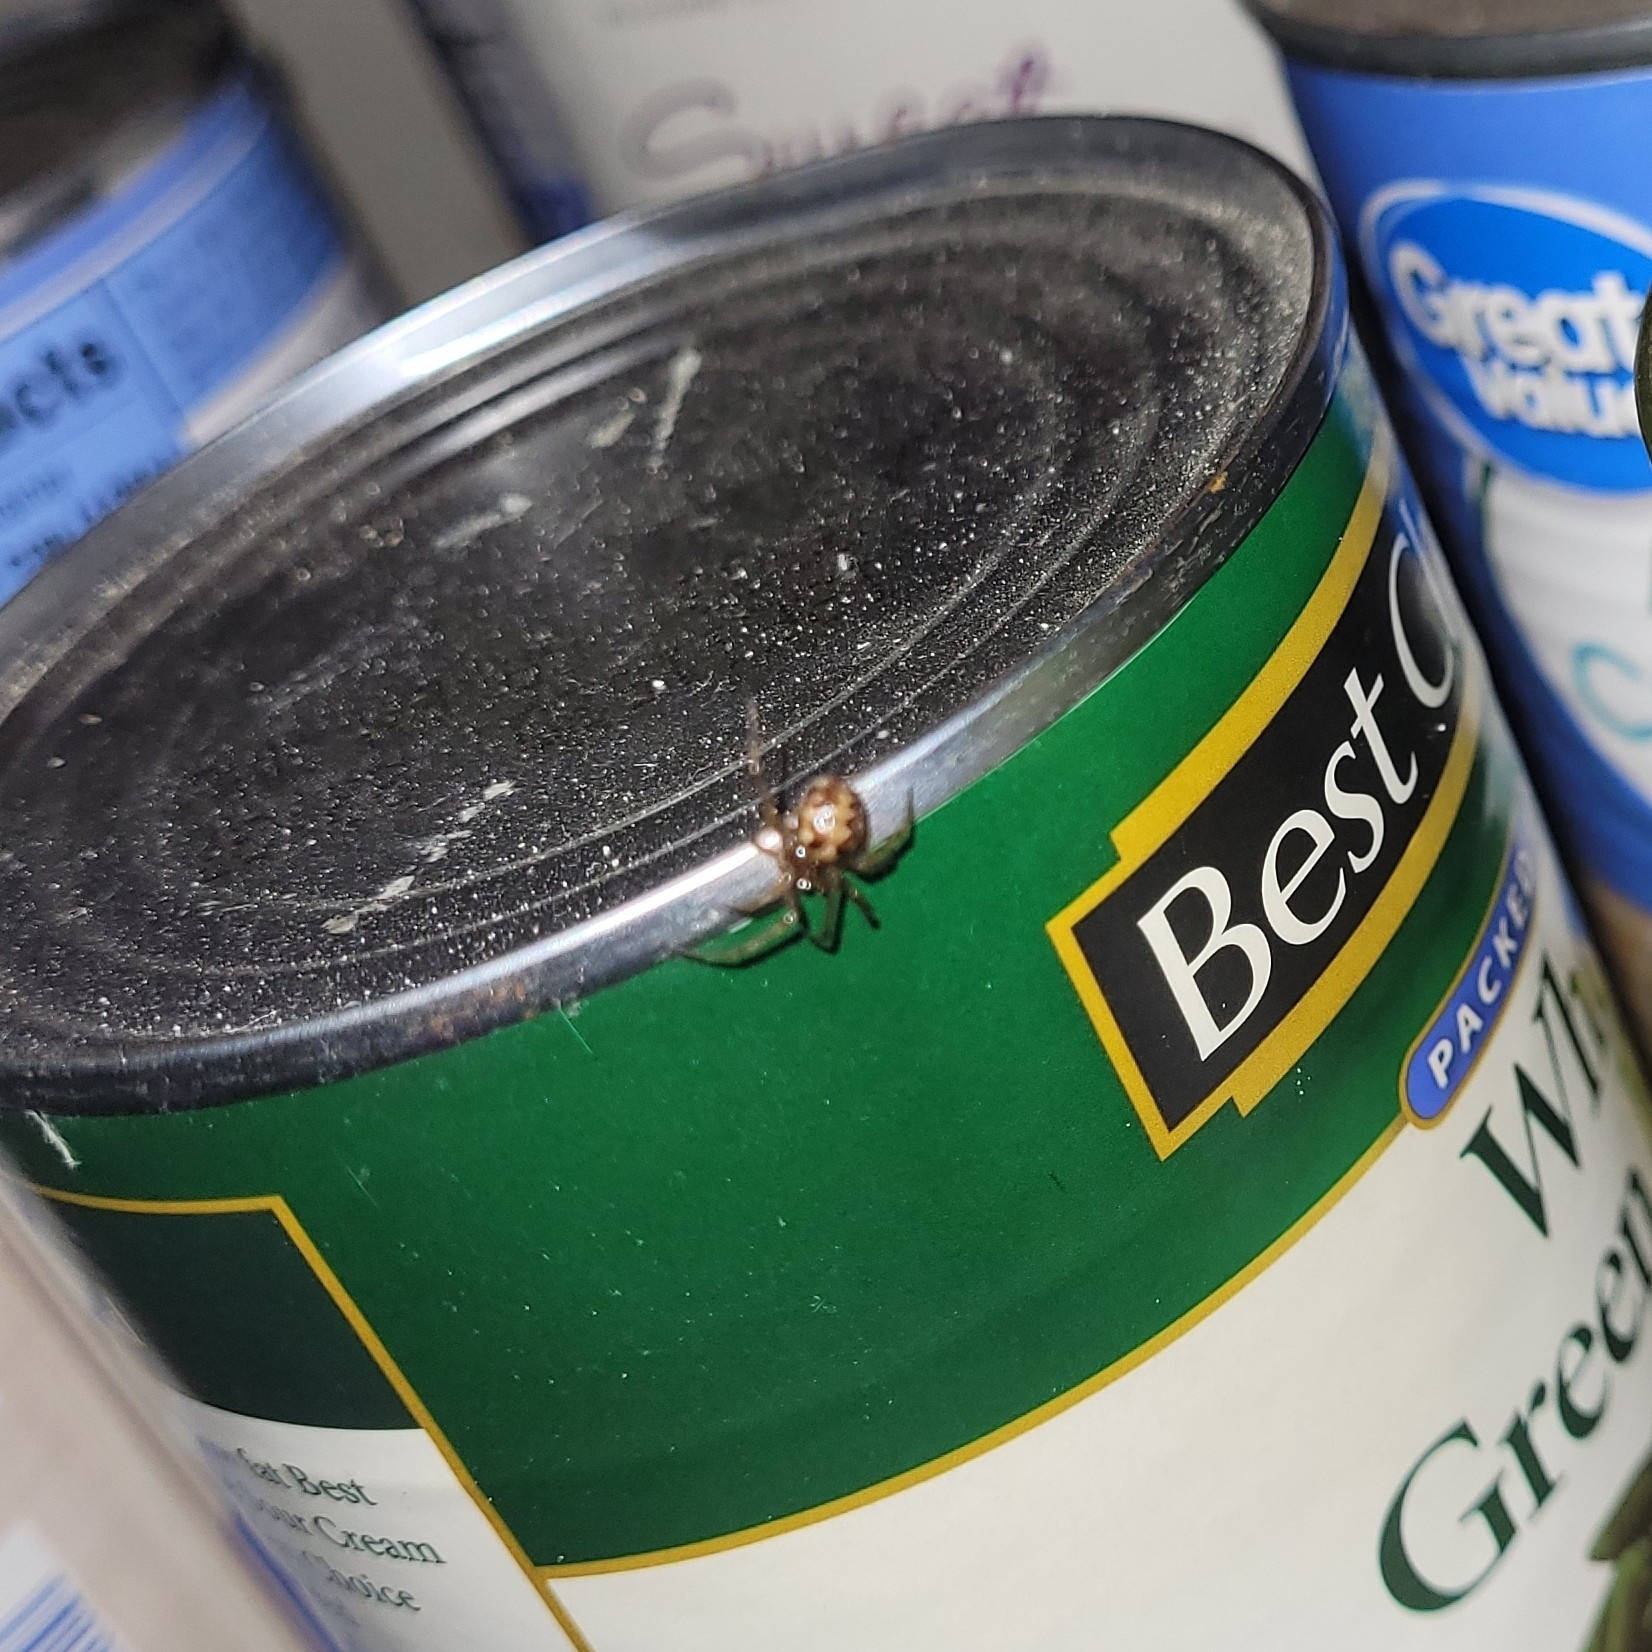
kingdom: Animalia
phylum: Arthropoda
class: Arachnida
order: Araneae
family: Theridiidae
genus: Steatoda
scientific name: Steatoda triangulosa
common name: Triangulate bud spider
